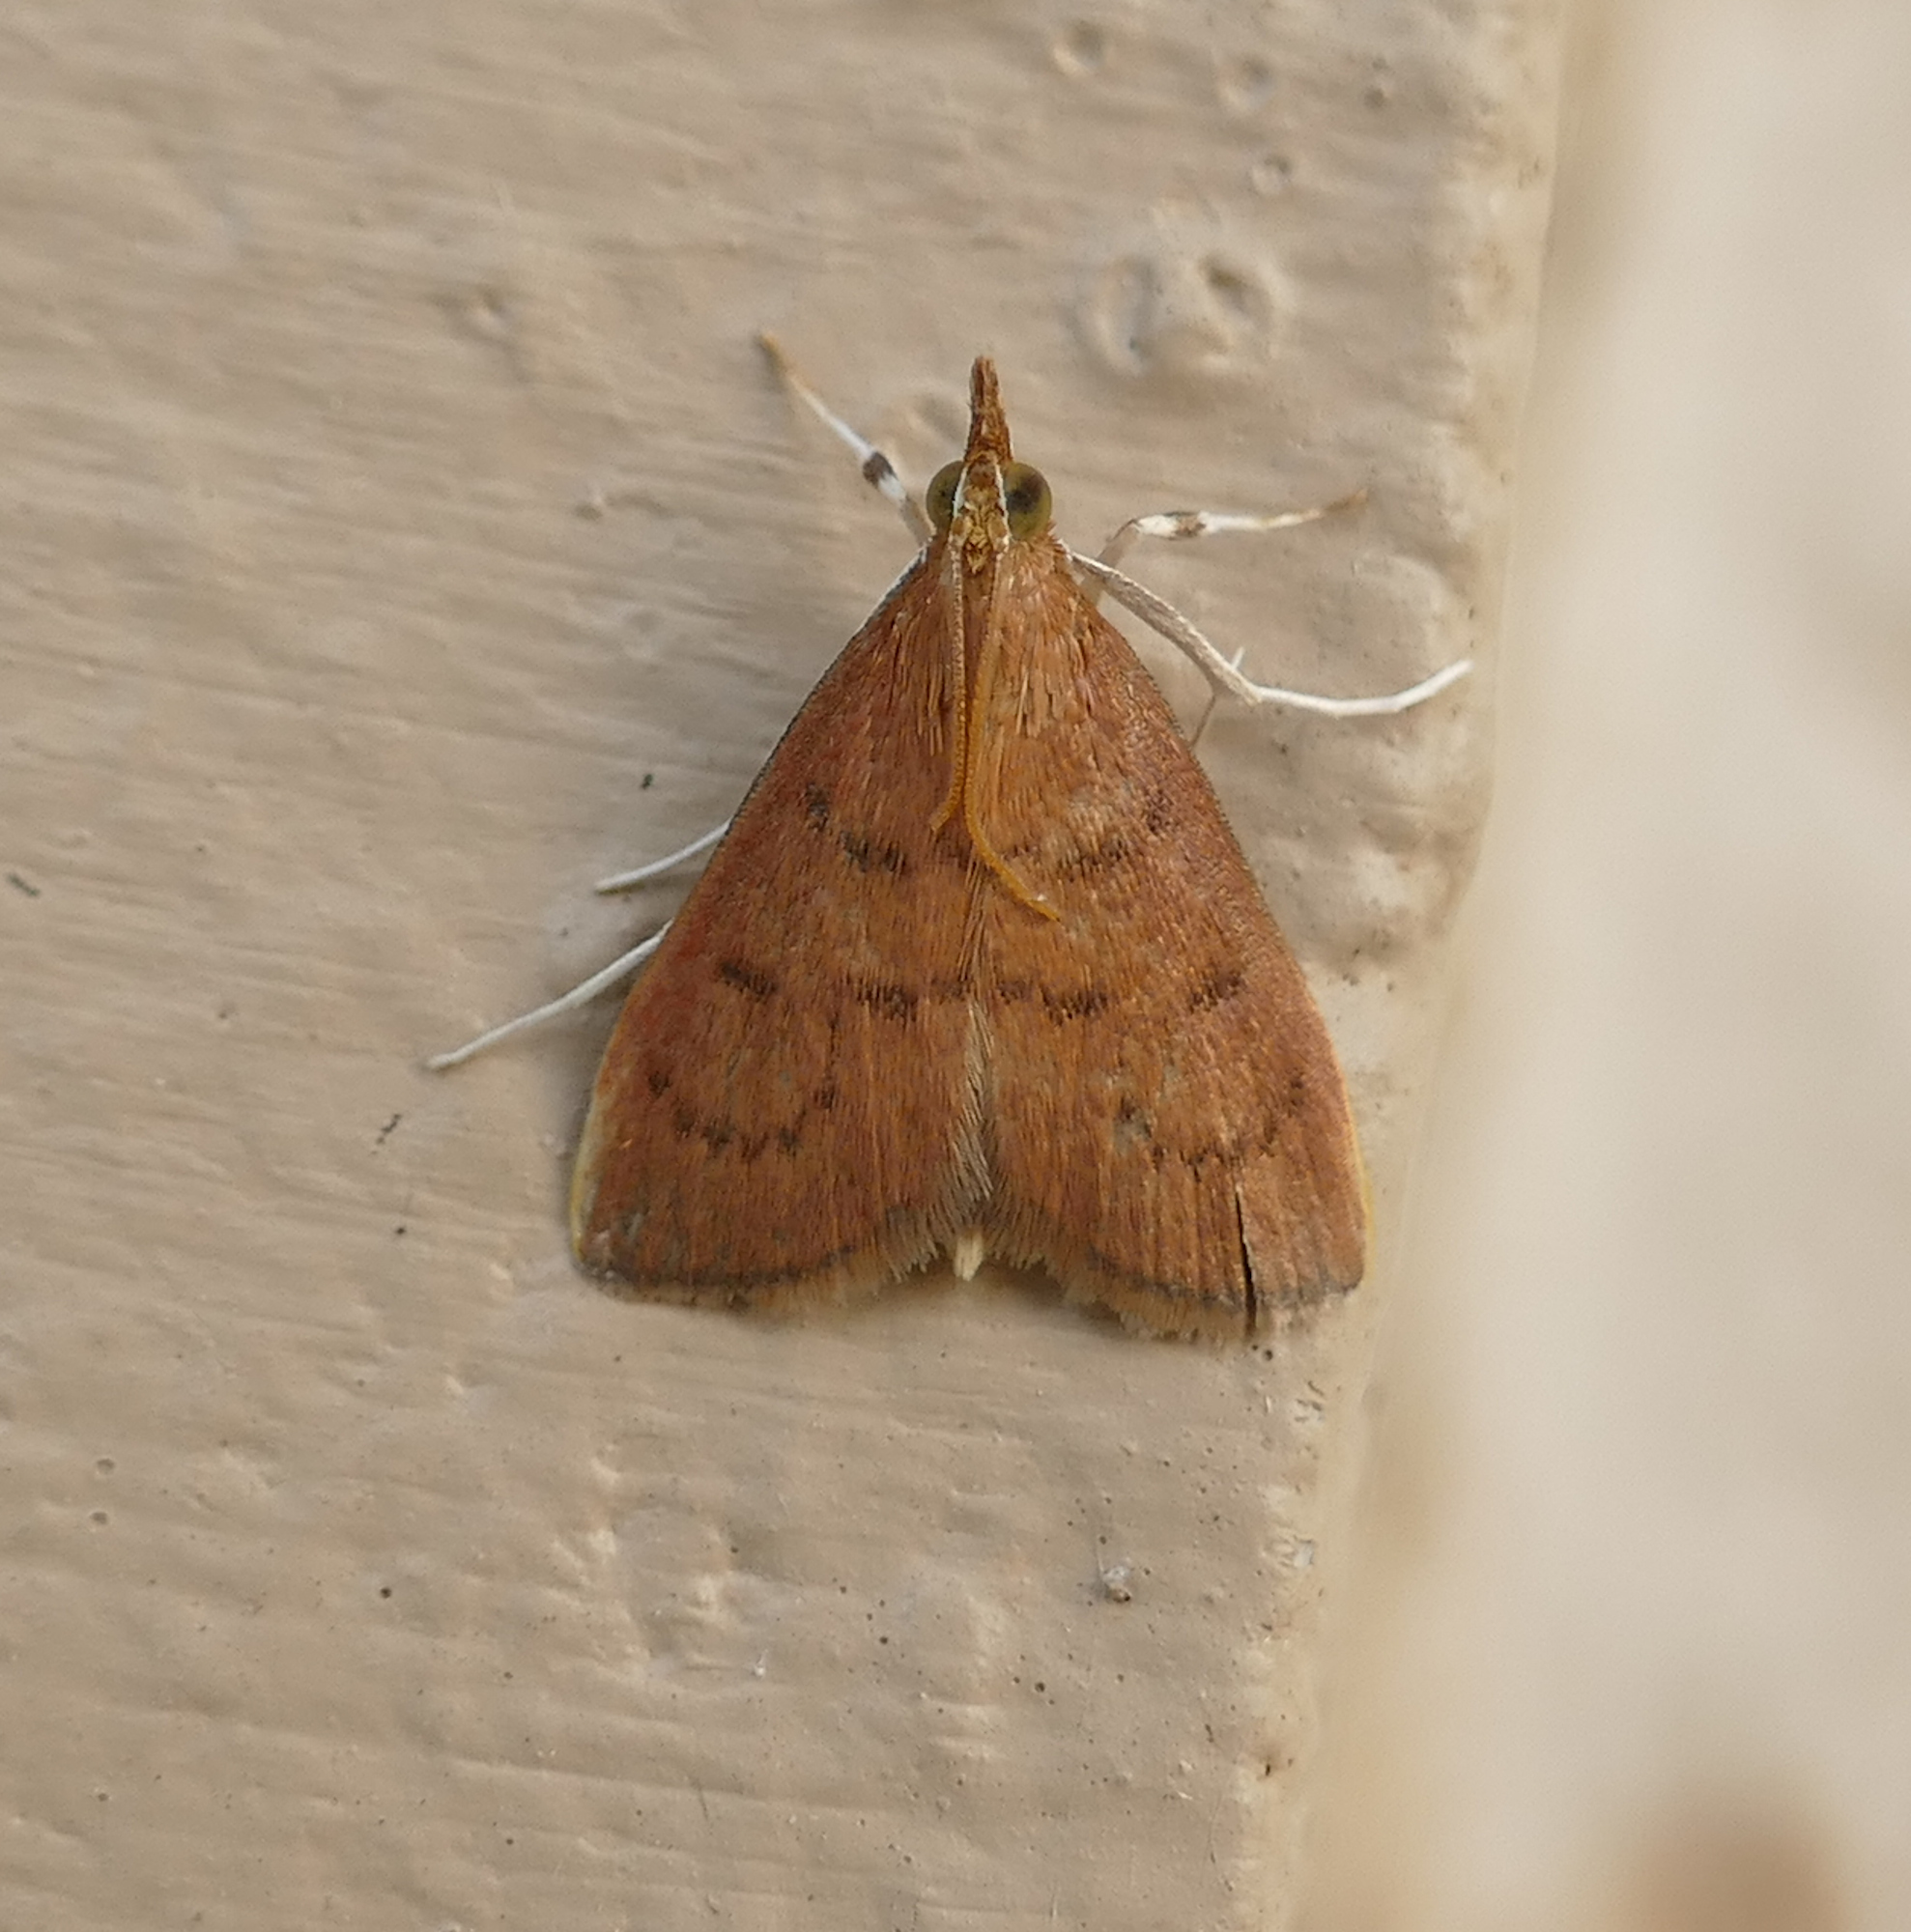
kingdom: Animalia
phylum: Arthropoda
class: Insecta
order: Lepidoptera
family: Crambidae
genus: Oenobotys
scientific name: Oenobotys vinotinctalis
